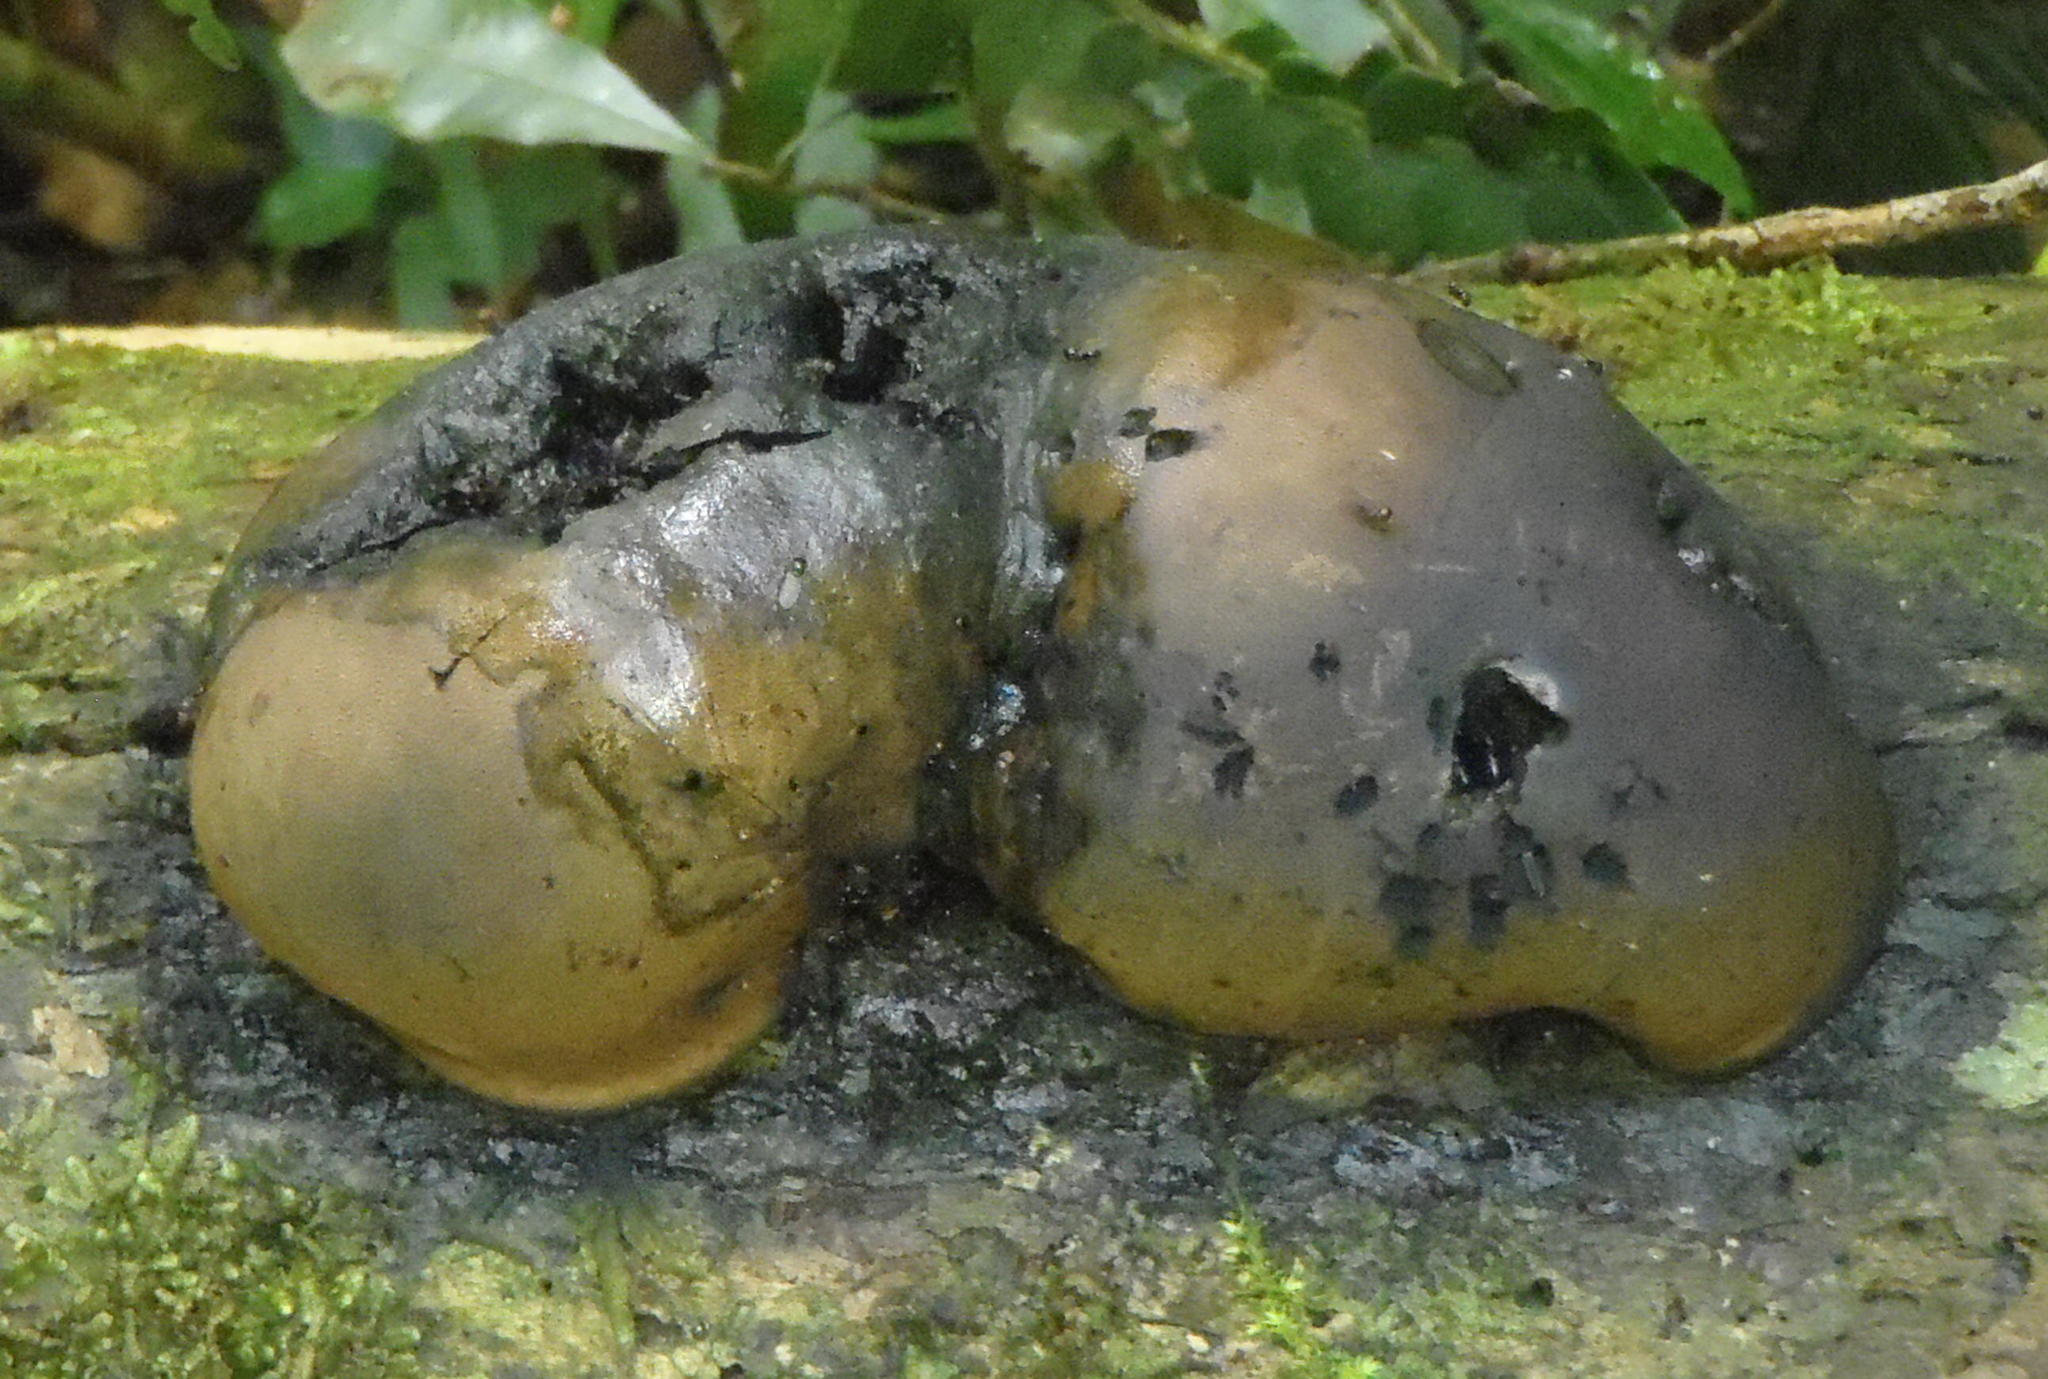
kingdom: Fungi
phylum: Ascomycota
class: Sordariomycetes
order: Xylariales
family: Hypoxylaceae
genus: Daldinia
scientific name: Daldinia concentrica
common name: Cramp balls
